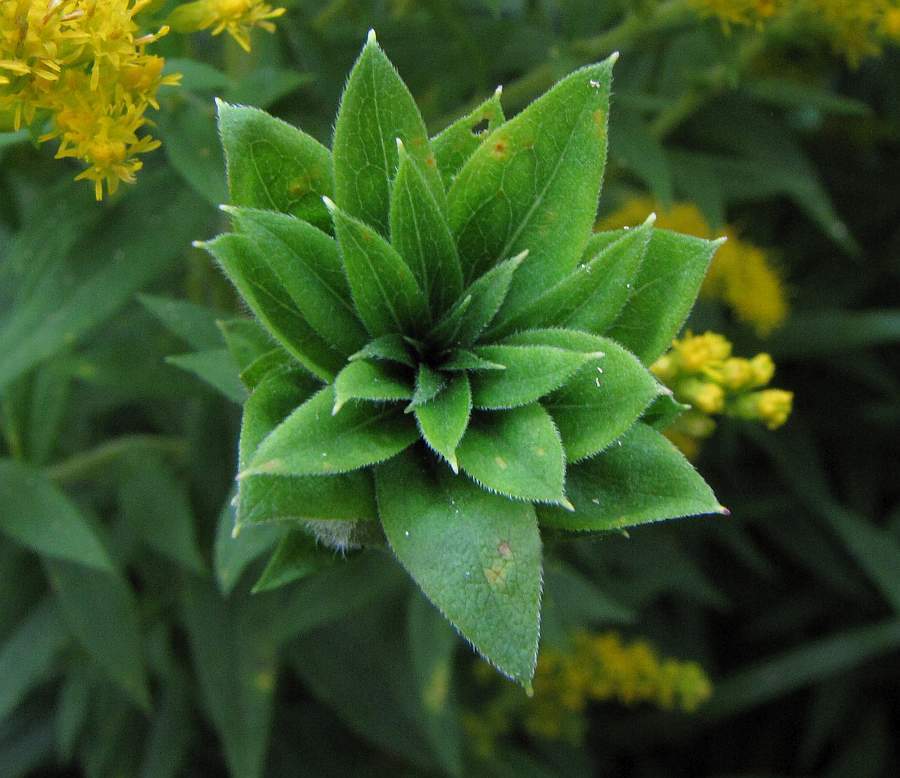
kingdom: Animalia
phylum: Arthropoda
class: Insecta
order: Diptera
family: Cecidomyiidae
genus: Rhopalomyia
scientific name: Rhopalomyia solidaginis
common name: Goldenrod bunch gall midge
